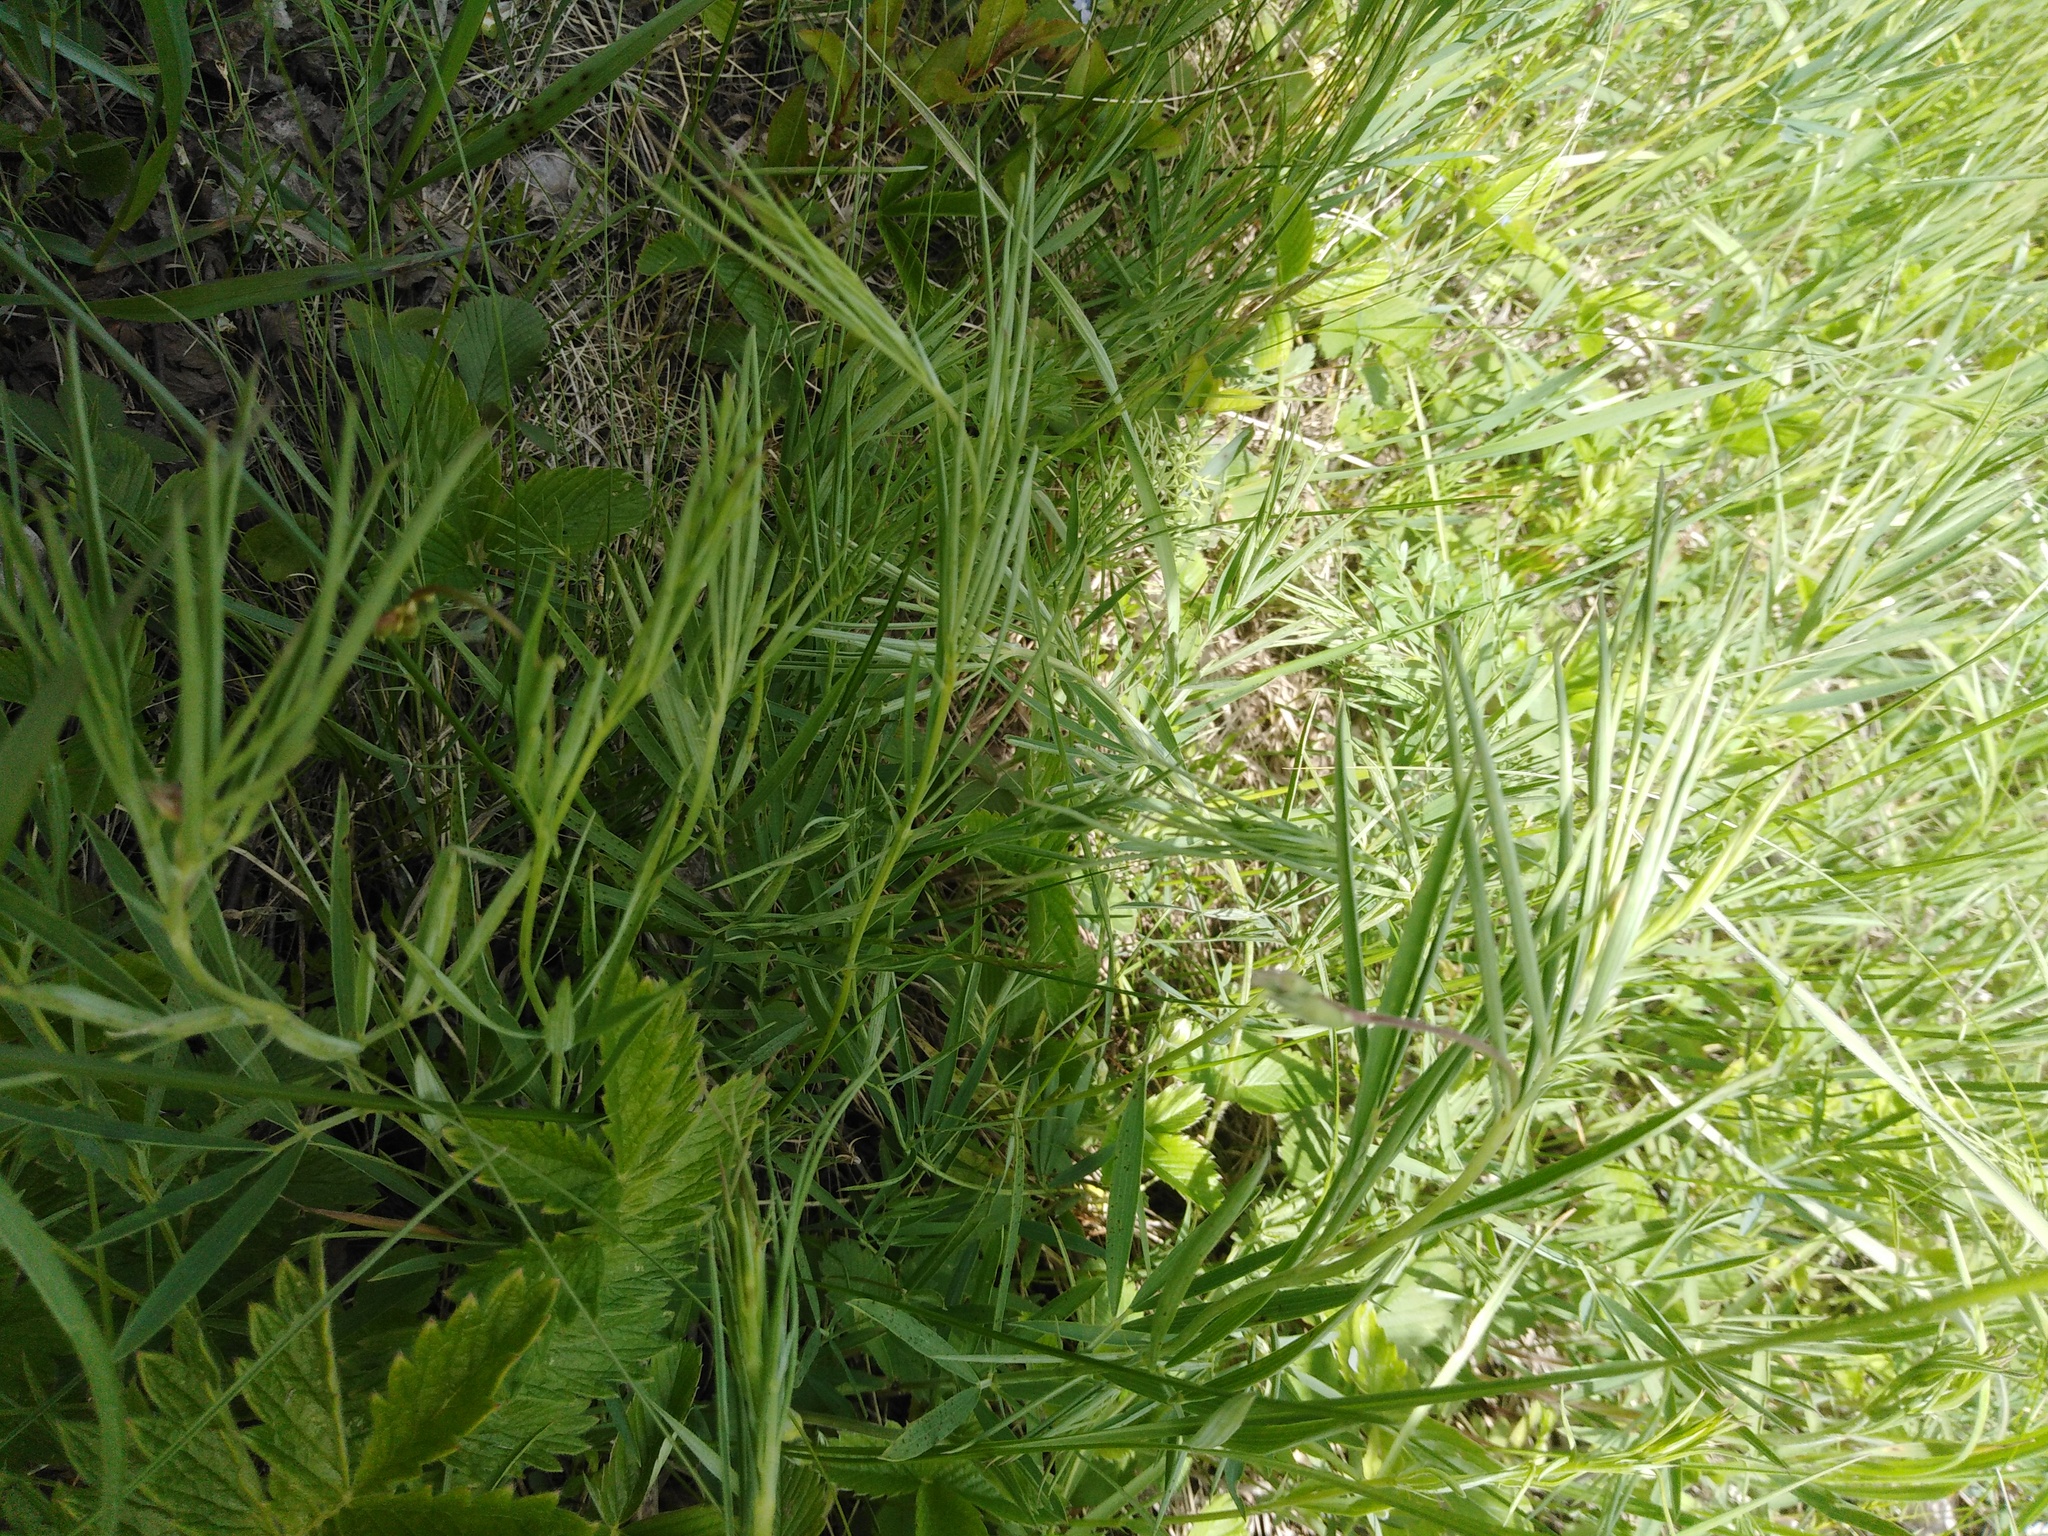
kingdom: Plantae
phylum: Tracheophyta
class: Magnoliopsida
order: Fabales
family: Fabaceae
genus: Lathyrus
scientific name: Lathyrus pallescens
